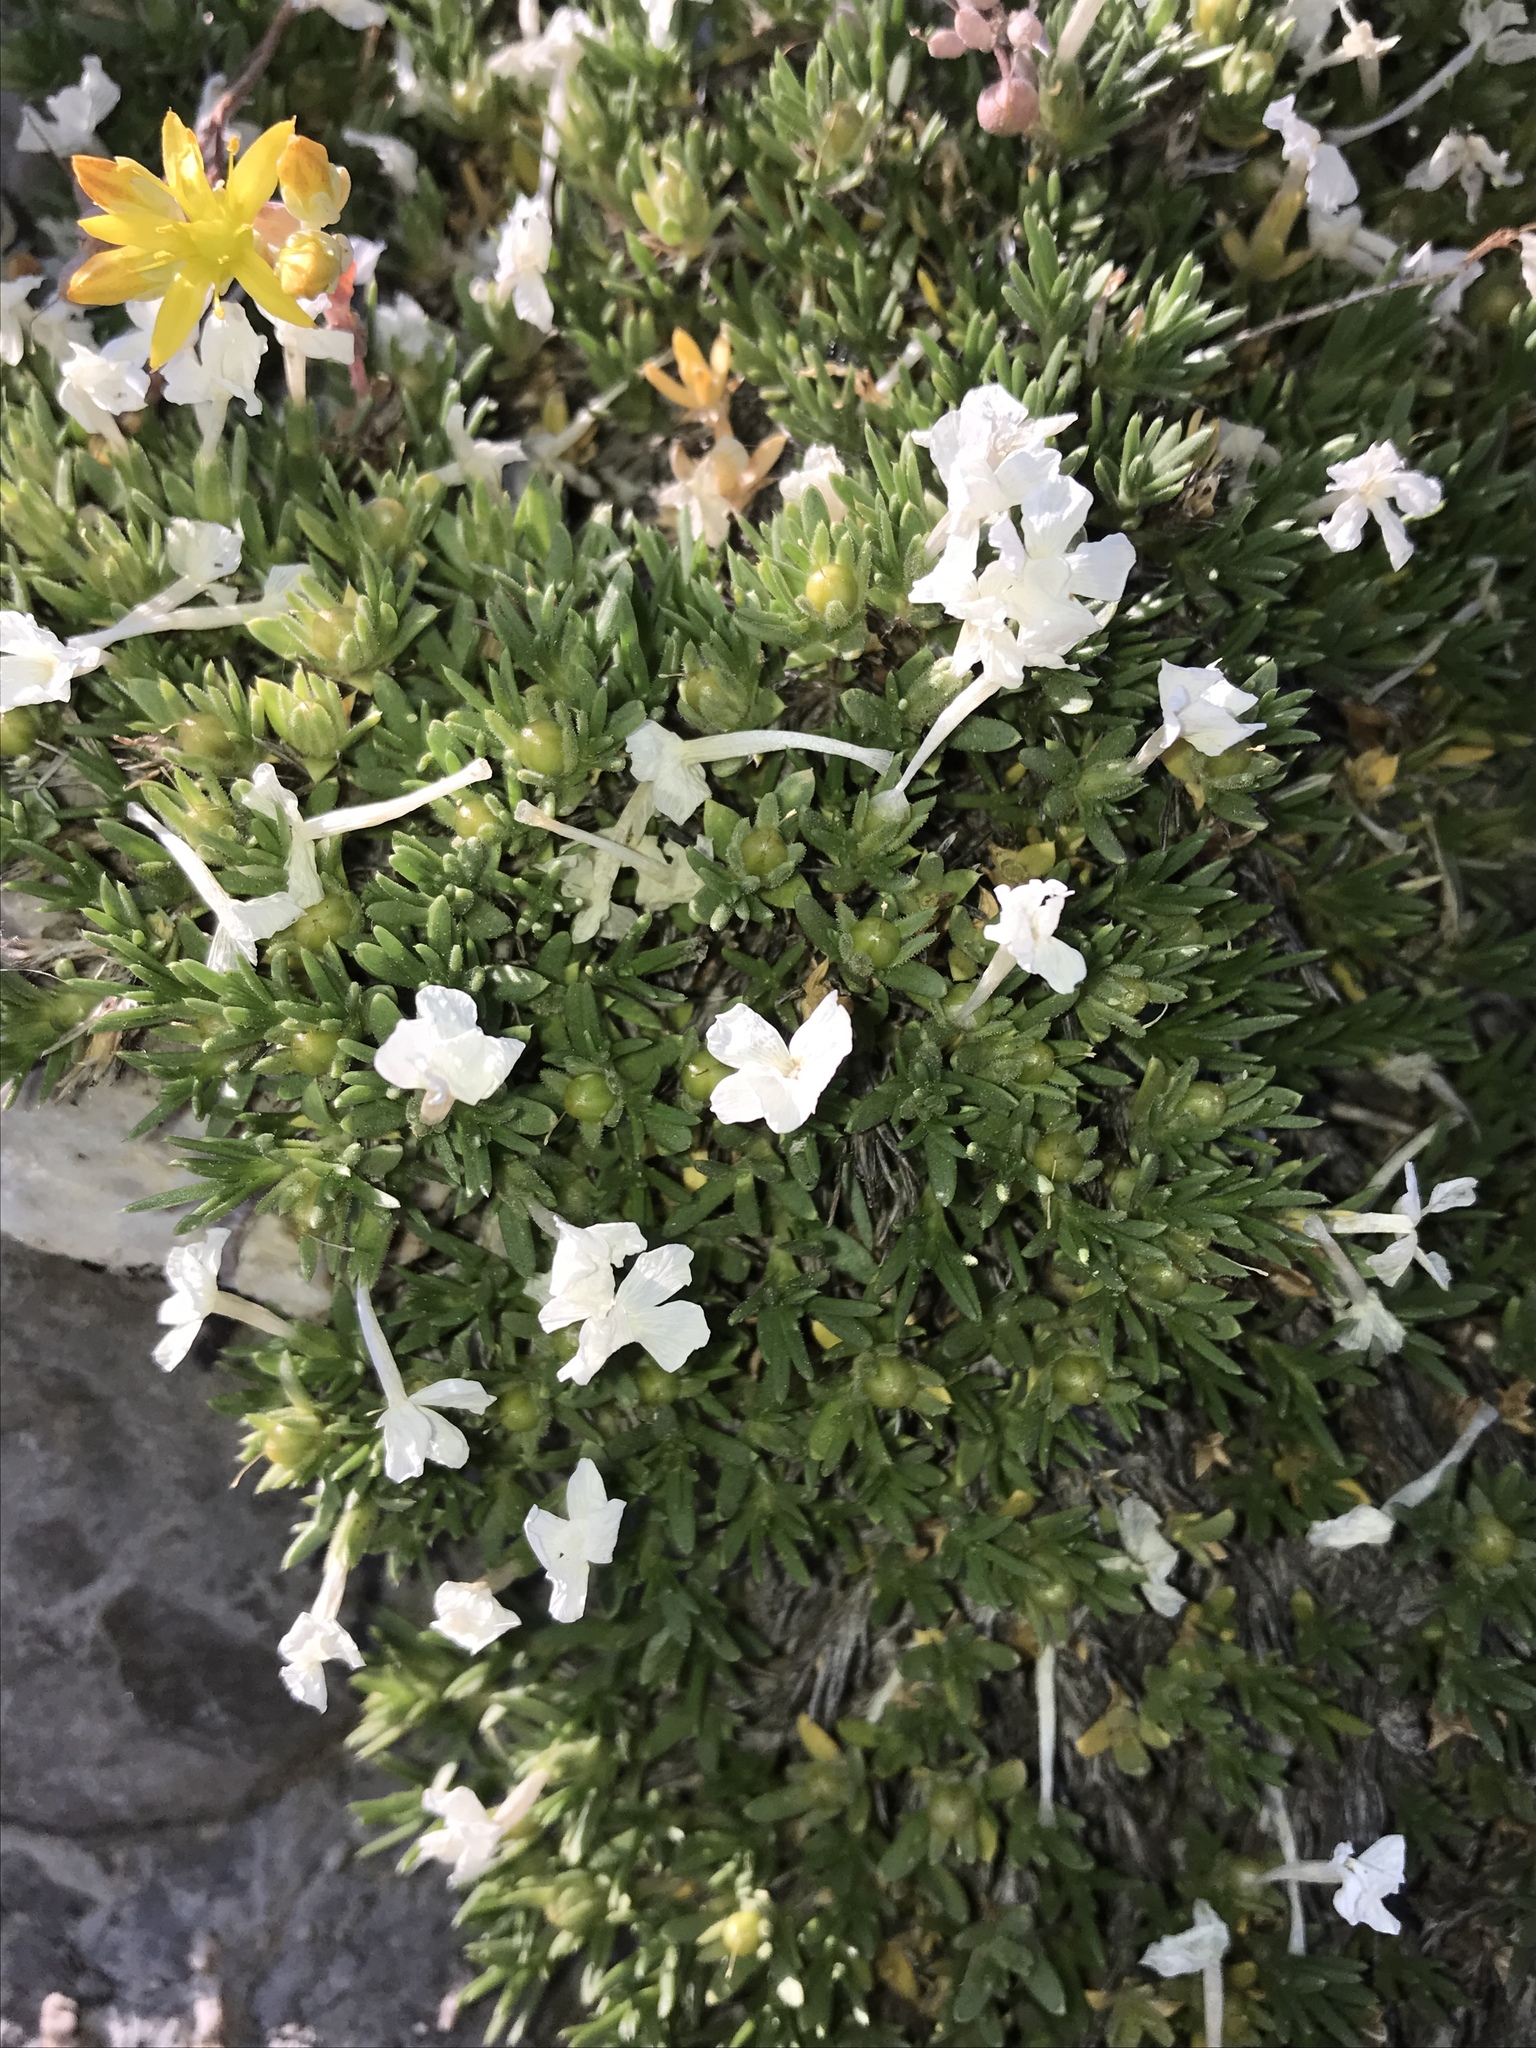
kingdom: Plantae
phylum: Tracheophyta
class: Magnoliopsida
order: Ericales
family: Polemoniaceae
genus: Phlox
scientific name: Phlox pulvinata
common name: Cushion phlox
